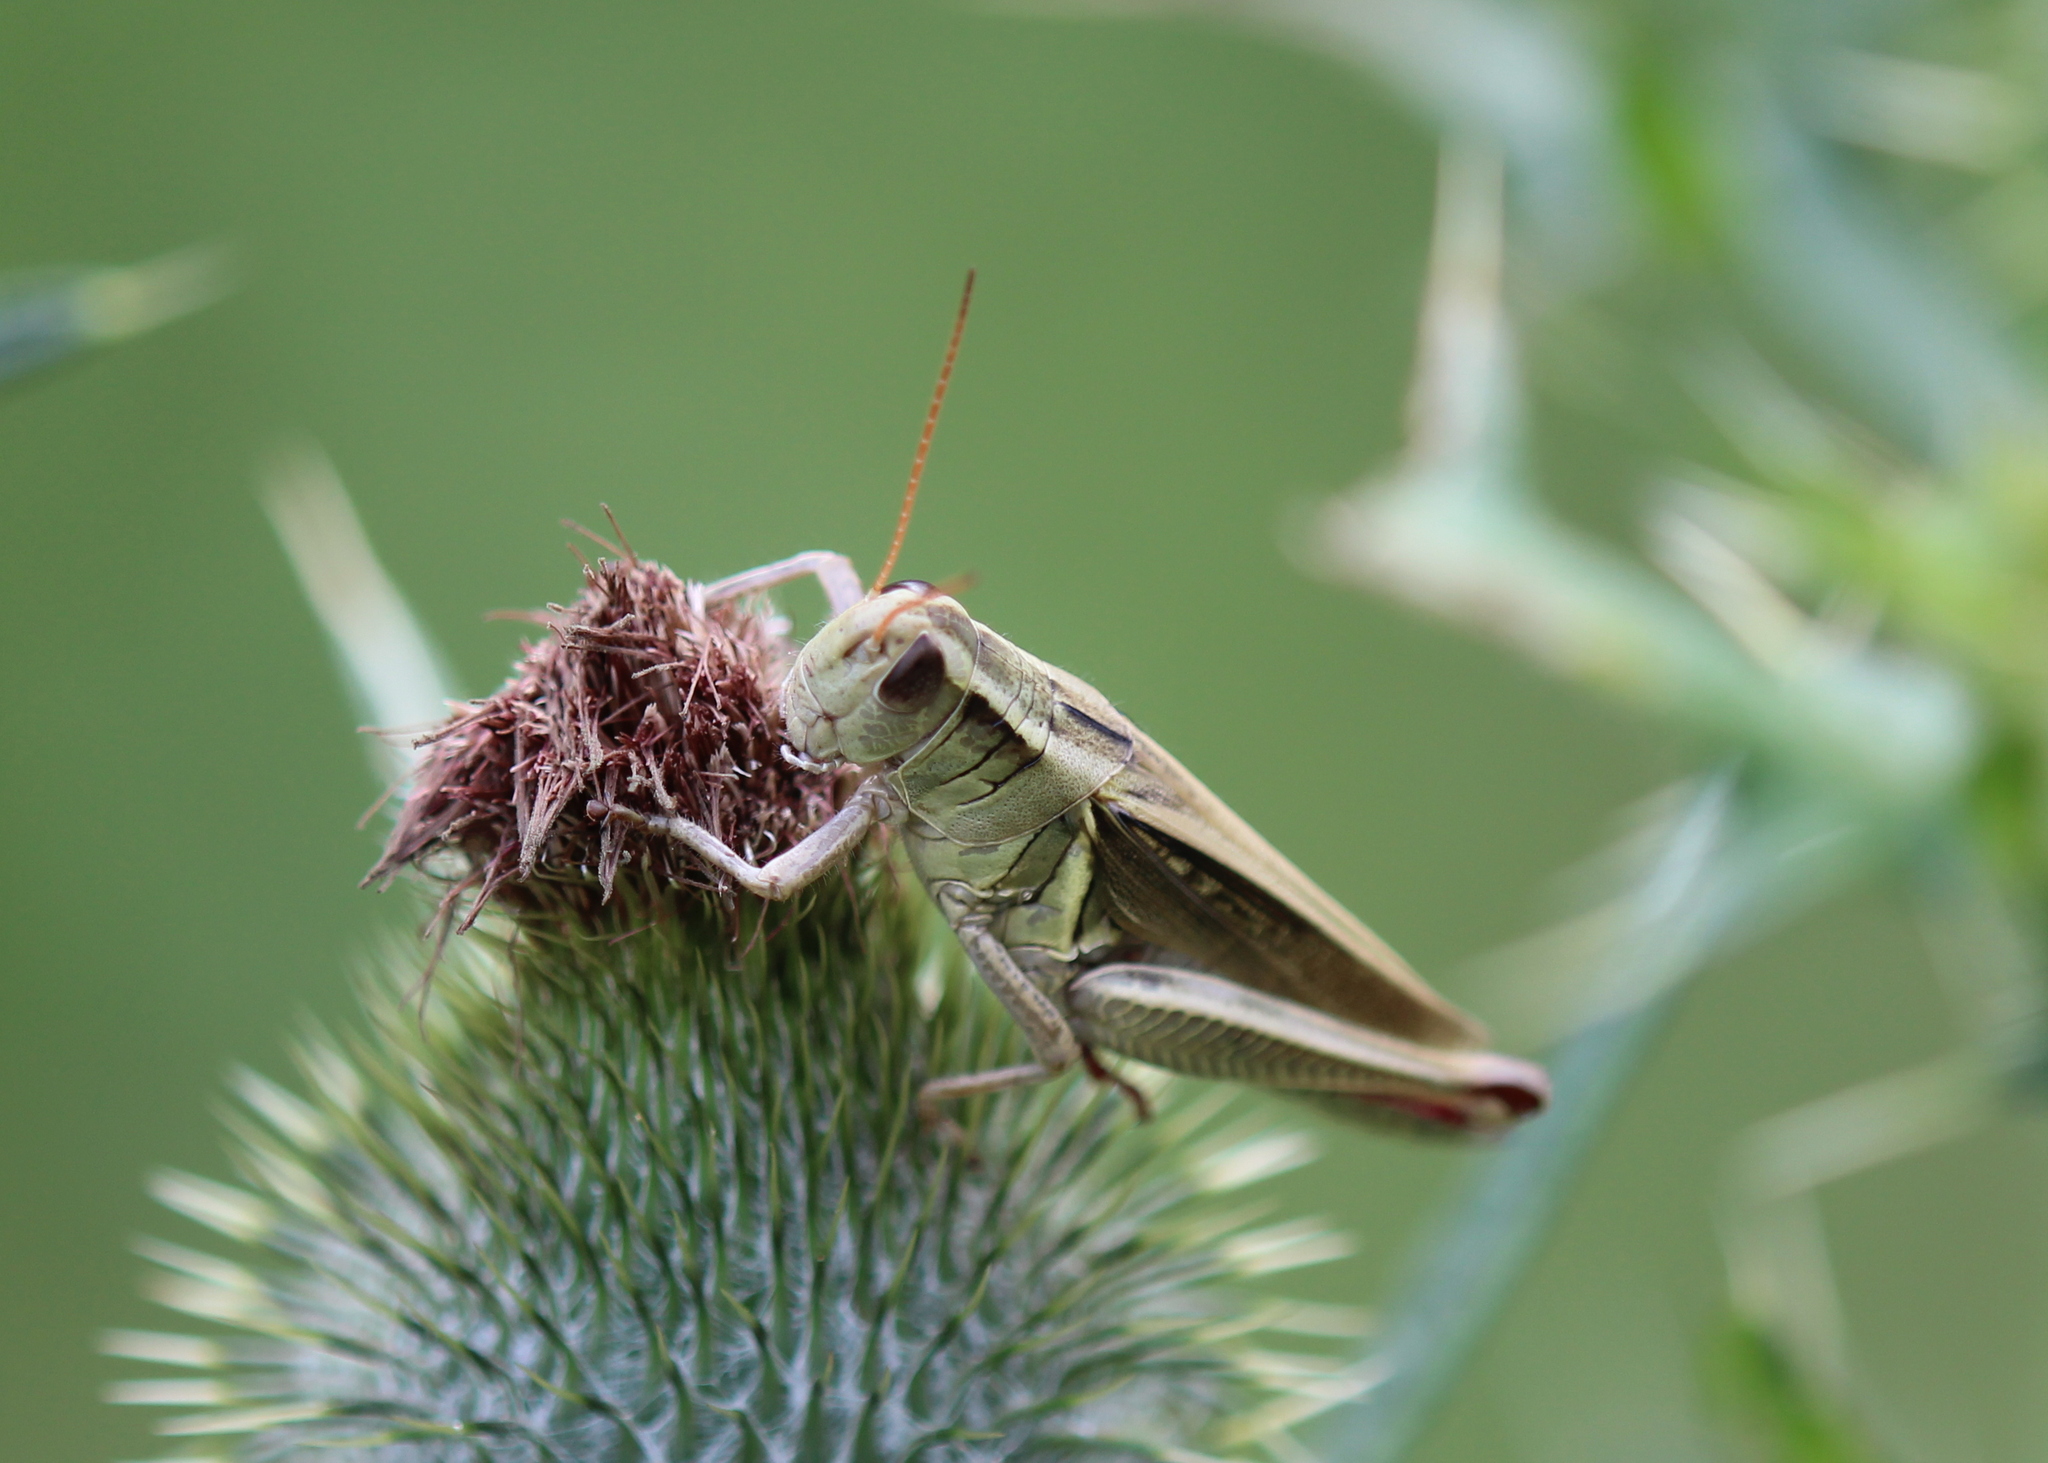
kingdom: Animalia
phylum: Arthropoda
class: Insecta
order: Orthoptera
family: Acrididae
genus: Melanoplus
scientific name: Melanoplus bivittatus
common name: Two-striped grasshopper
